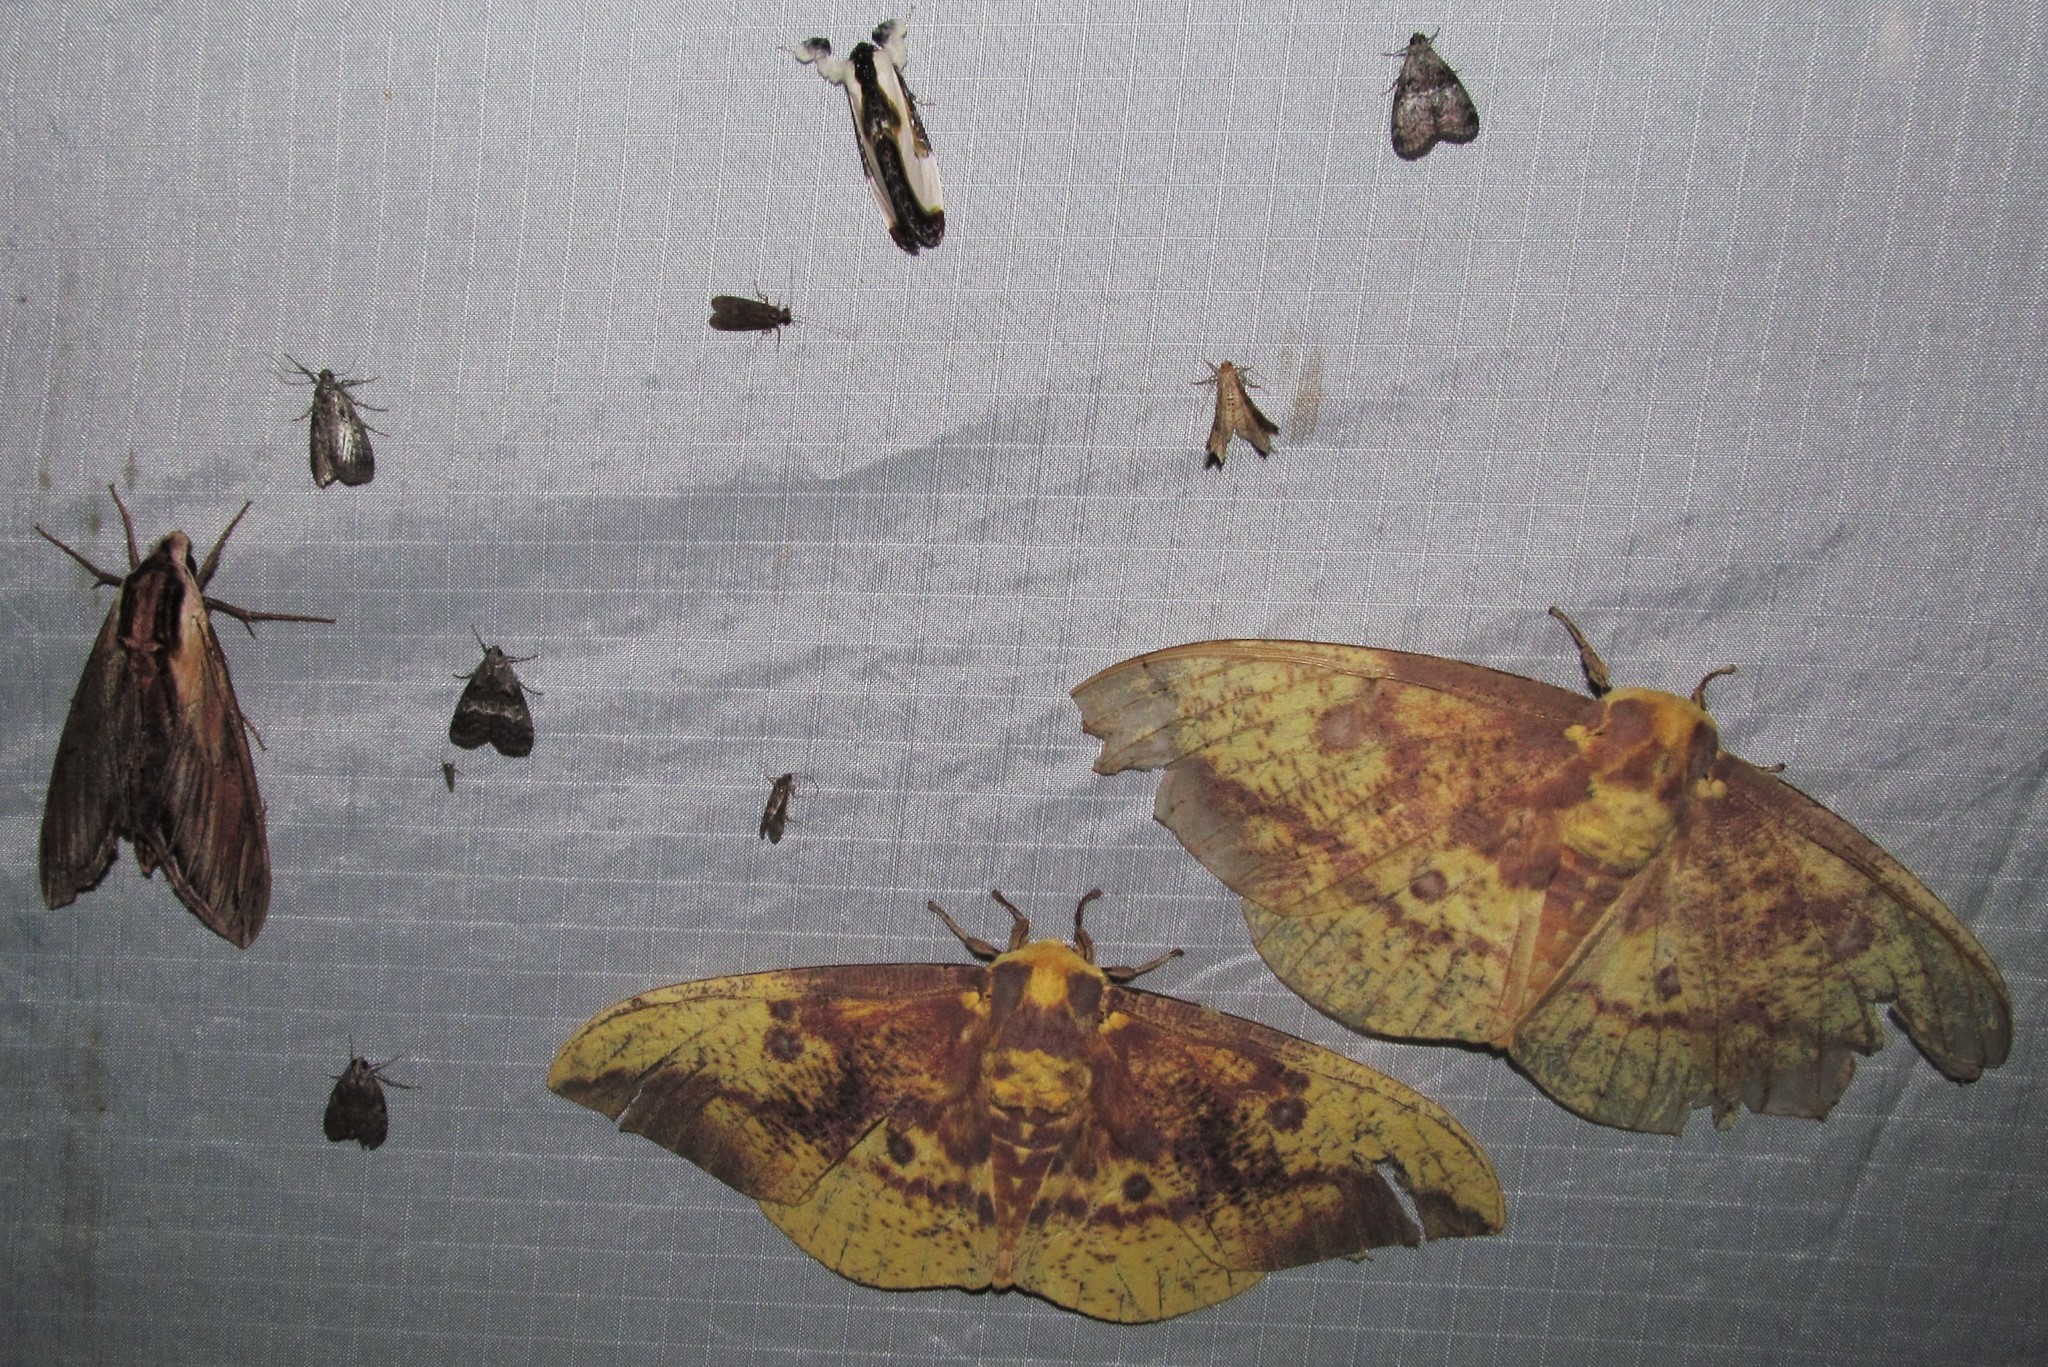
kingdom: Animalia
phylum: Arthropoda
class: Insecta
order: Lepidoptera
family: Saturniidae
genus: Eacles
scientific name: Eacles imperialis
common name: Imperial moth
